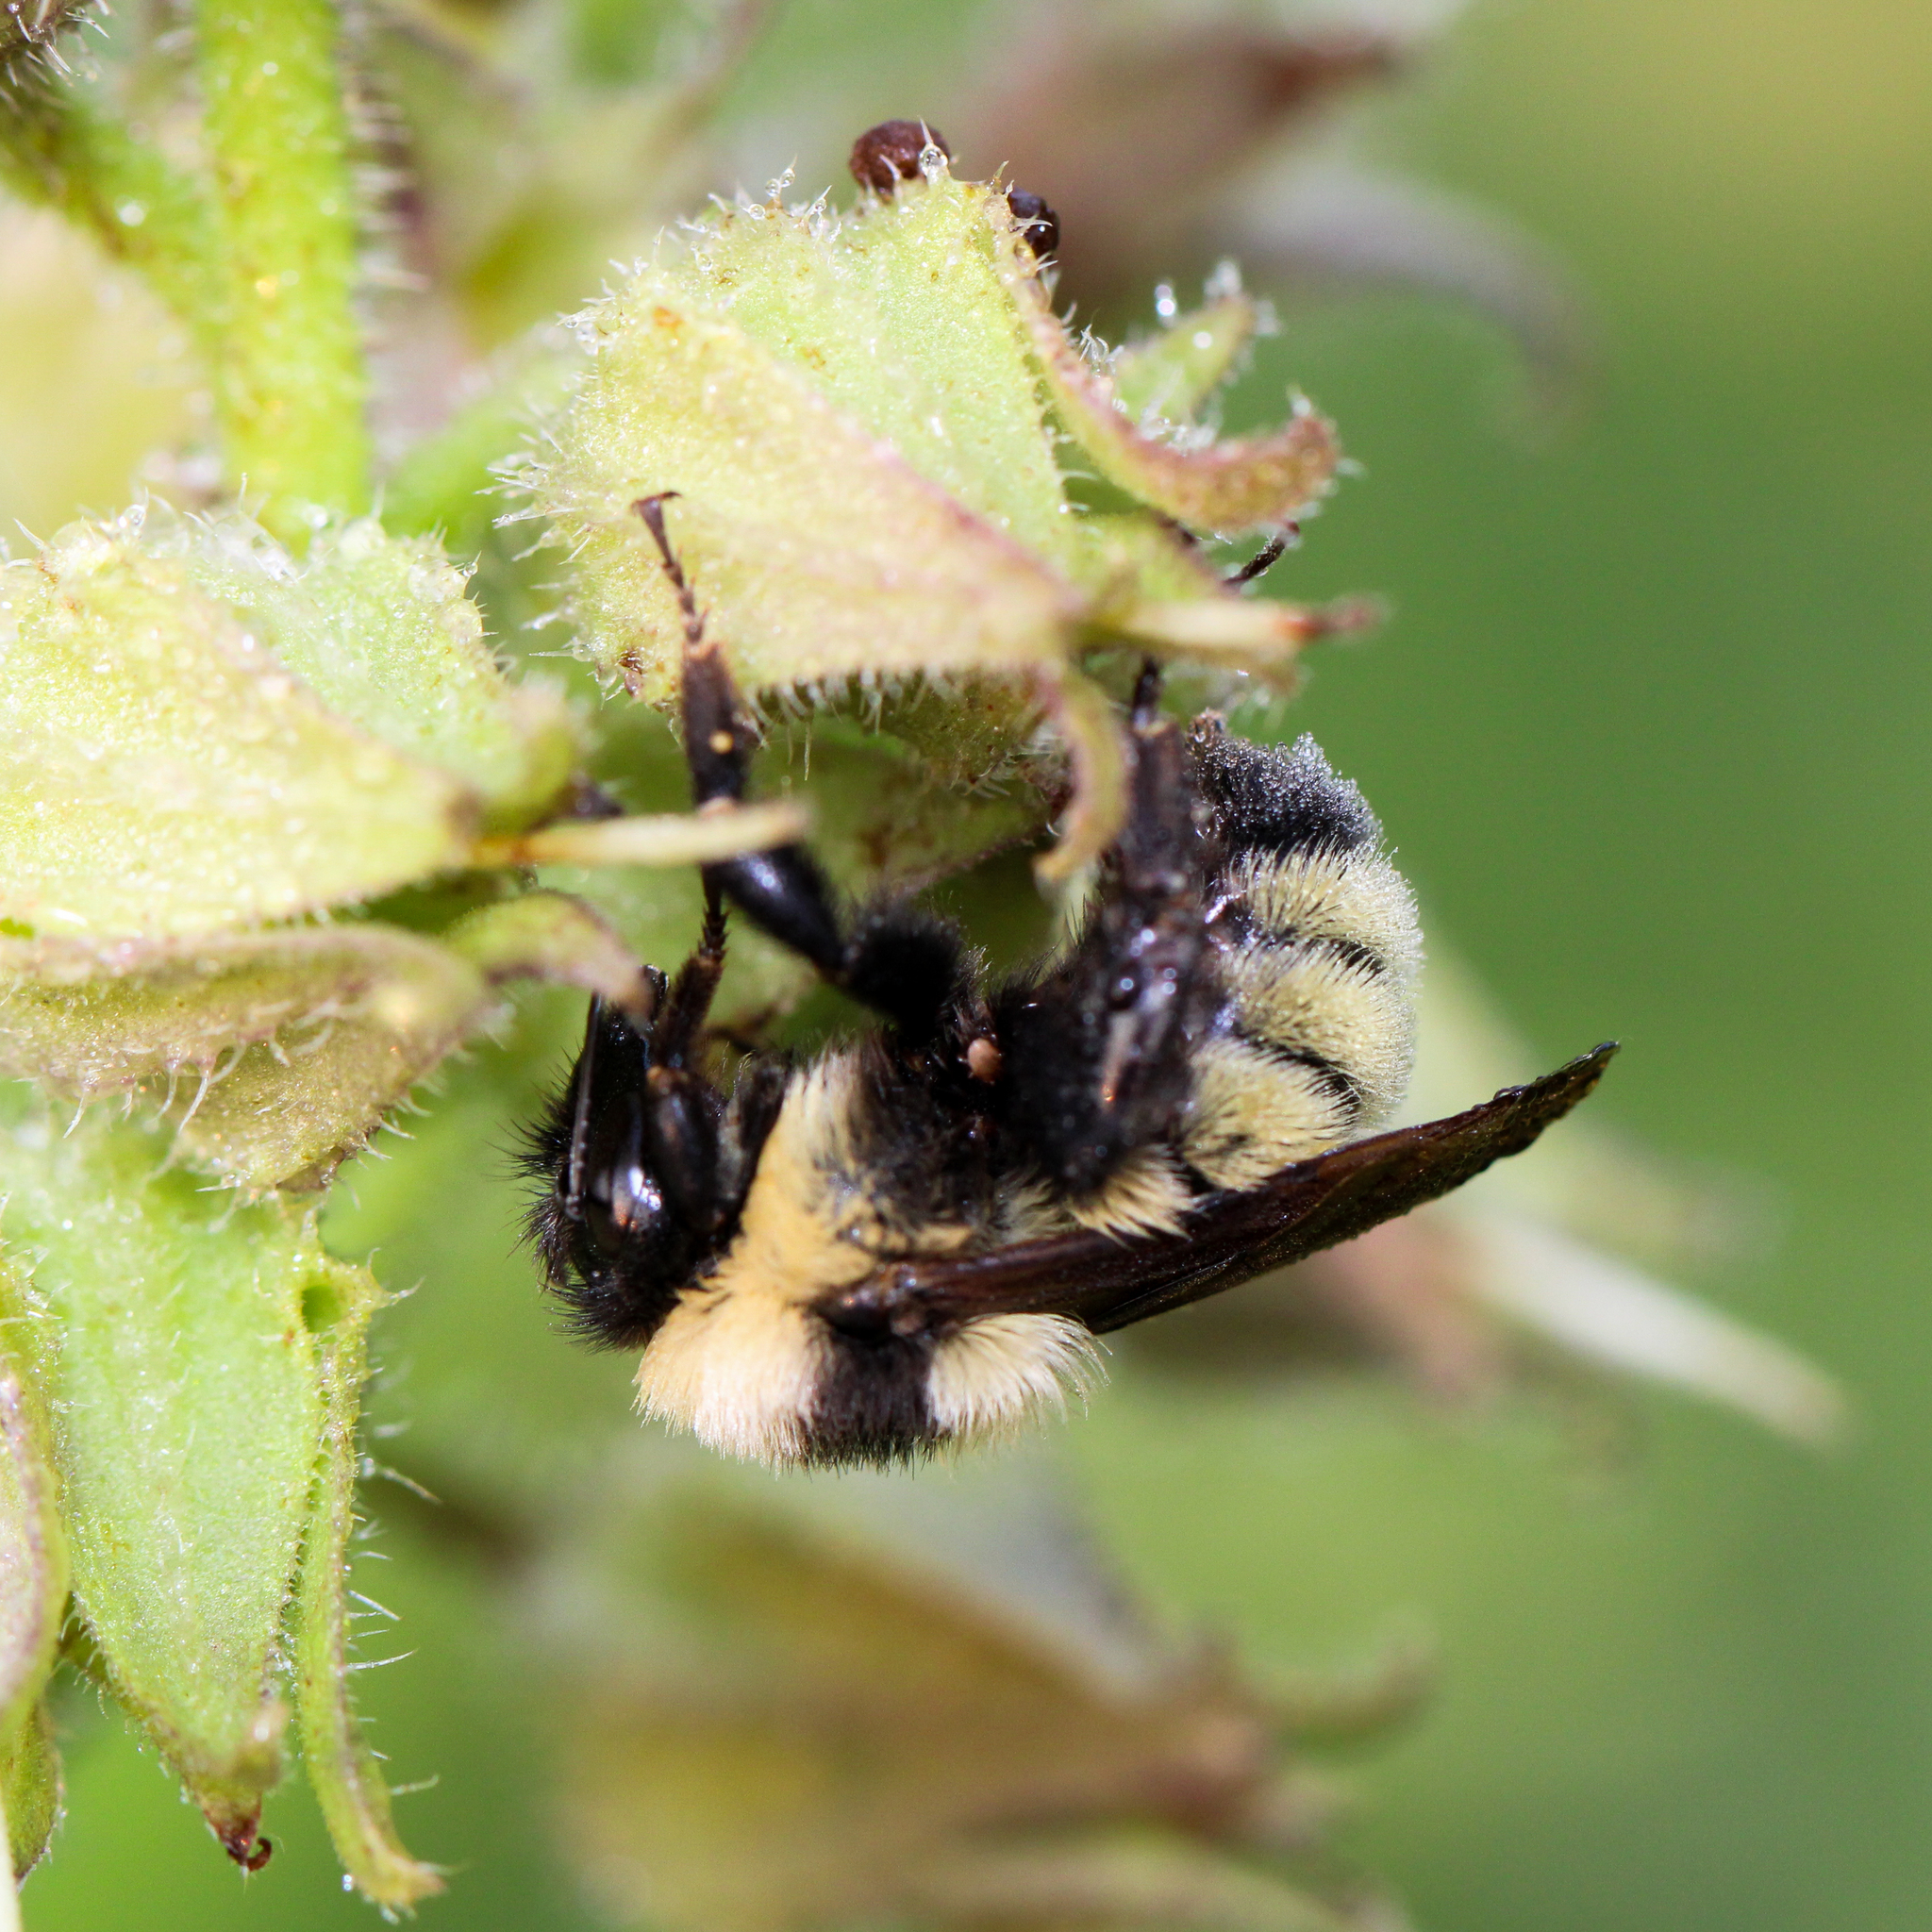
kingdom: Animalia
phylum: Arthropoda
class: Insecta
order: Hymenoptera
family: Apidae
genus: Bombus
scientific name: Bombus fervidus
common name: Yellow bumble bee
